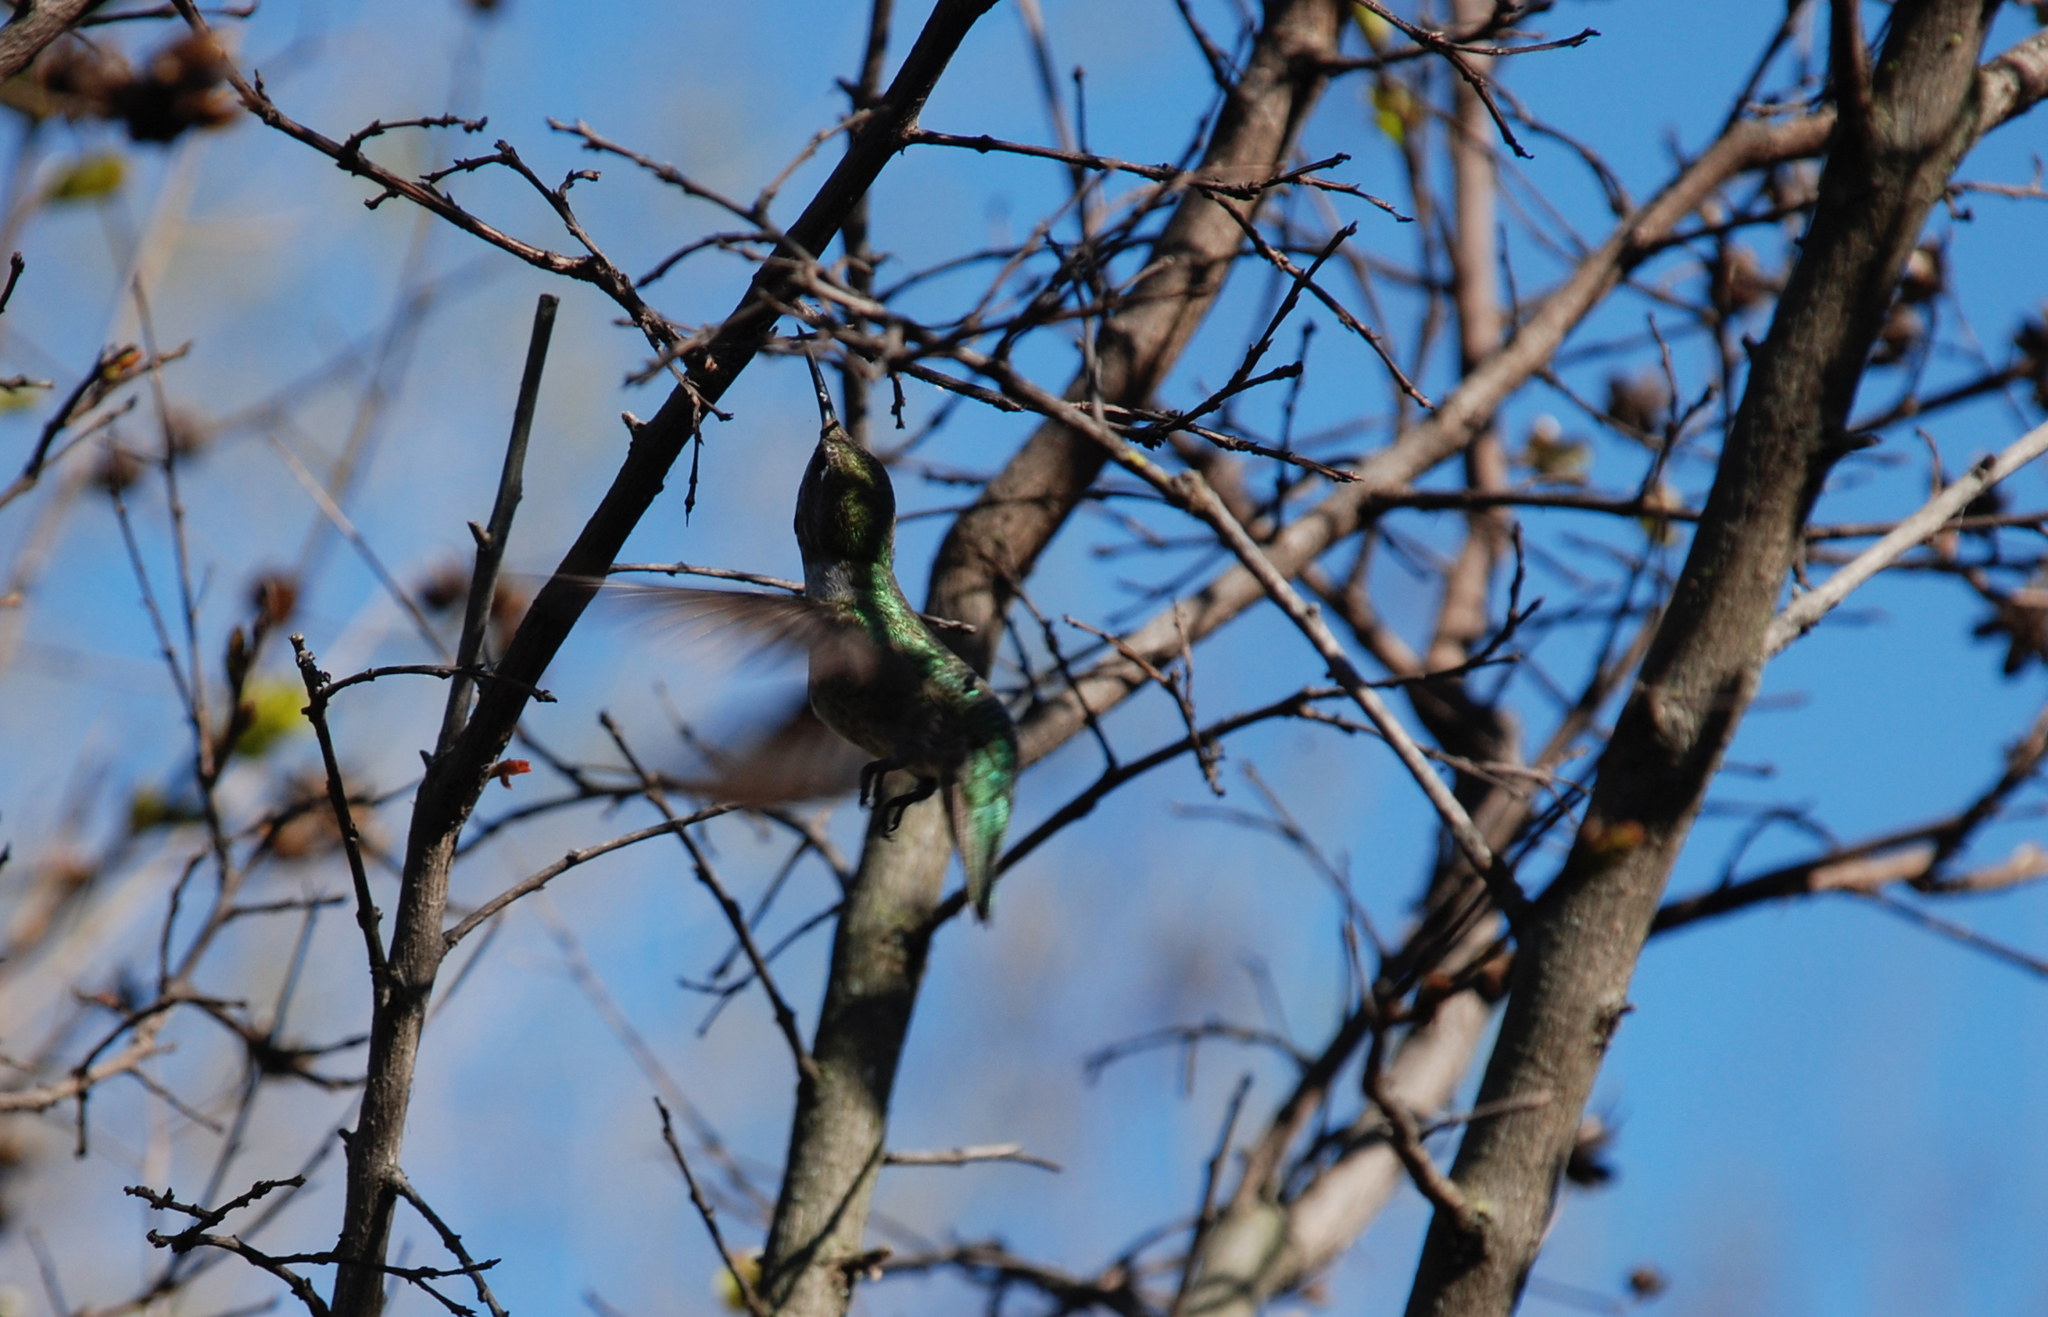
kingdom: Animalia
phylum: Chordata
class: Aves
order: Apodiformes
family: Trochilidae
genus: Calypte
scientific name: Calypte anna
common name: Anna's hummingbird
